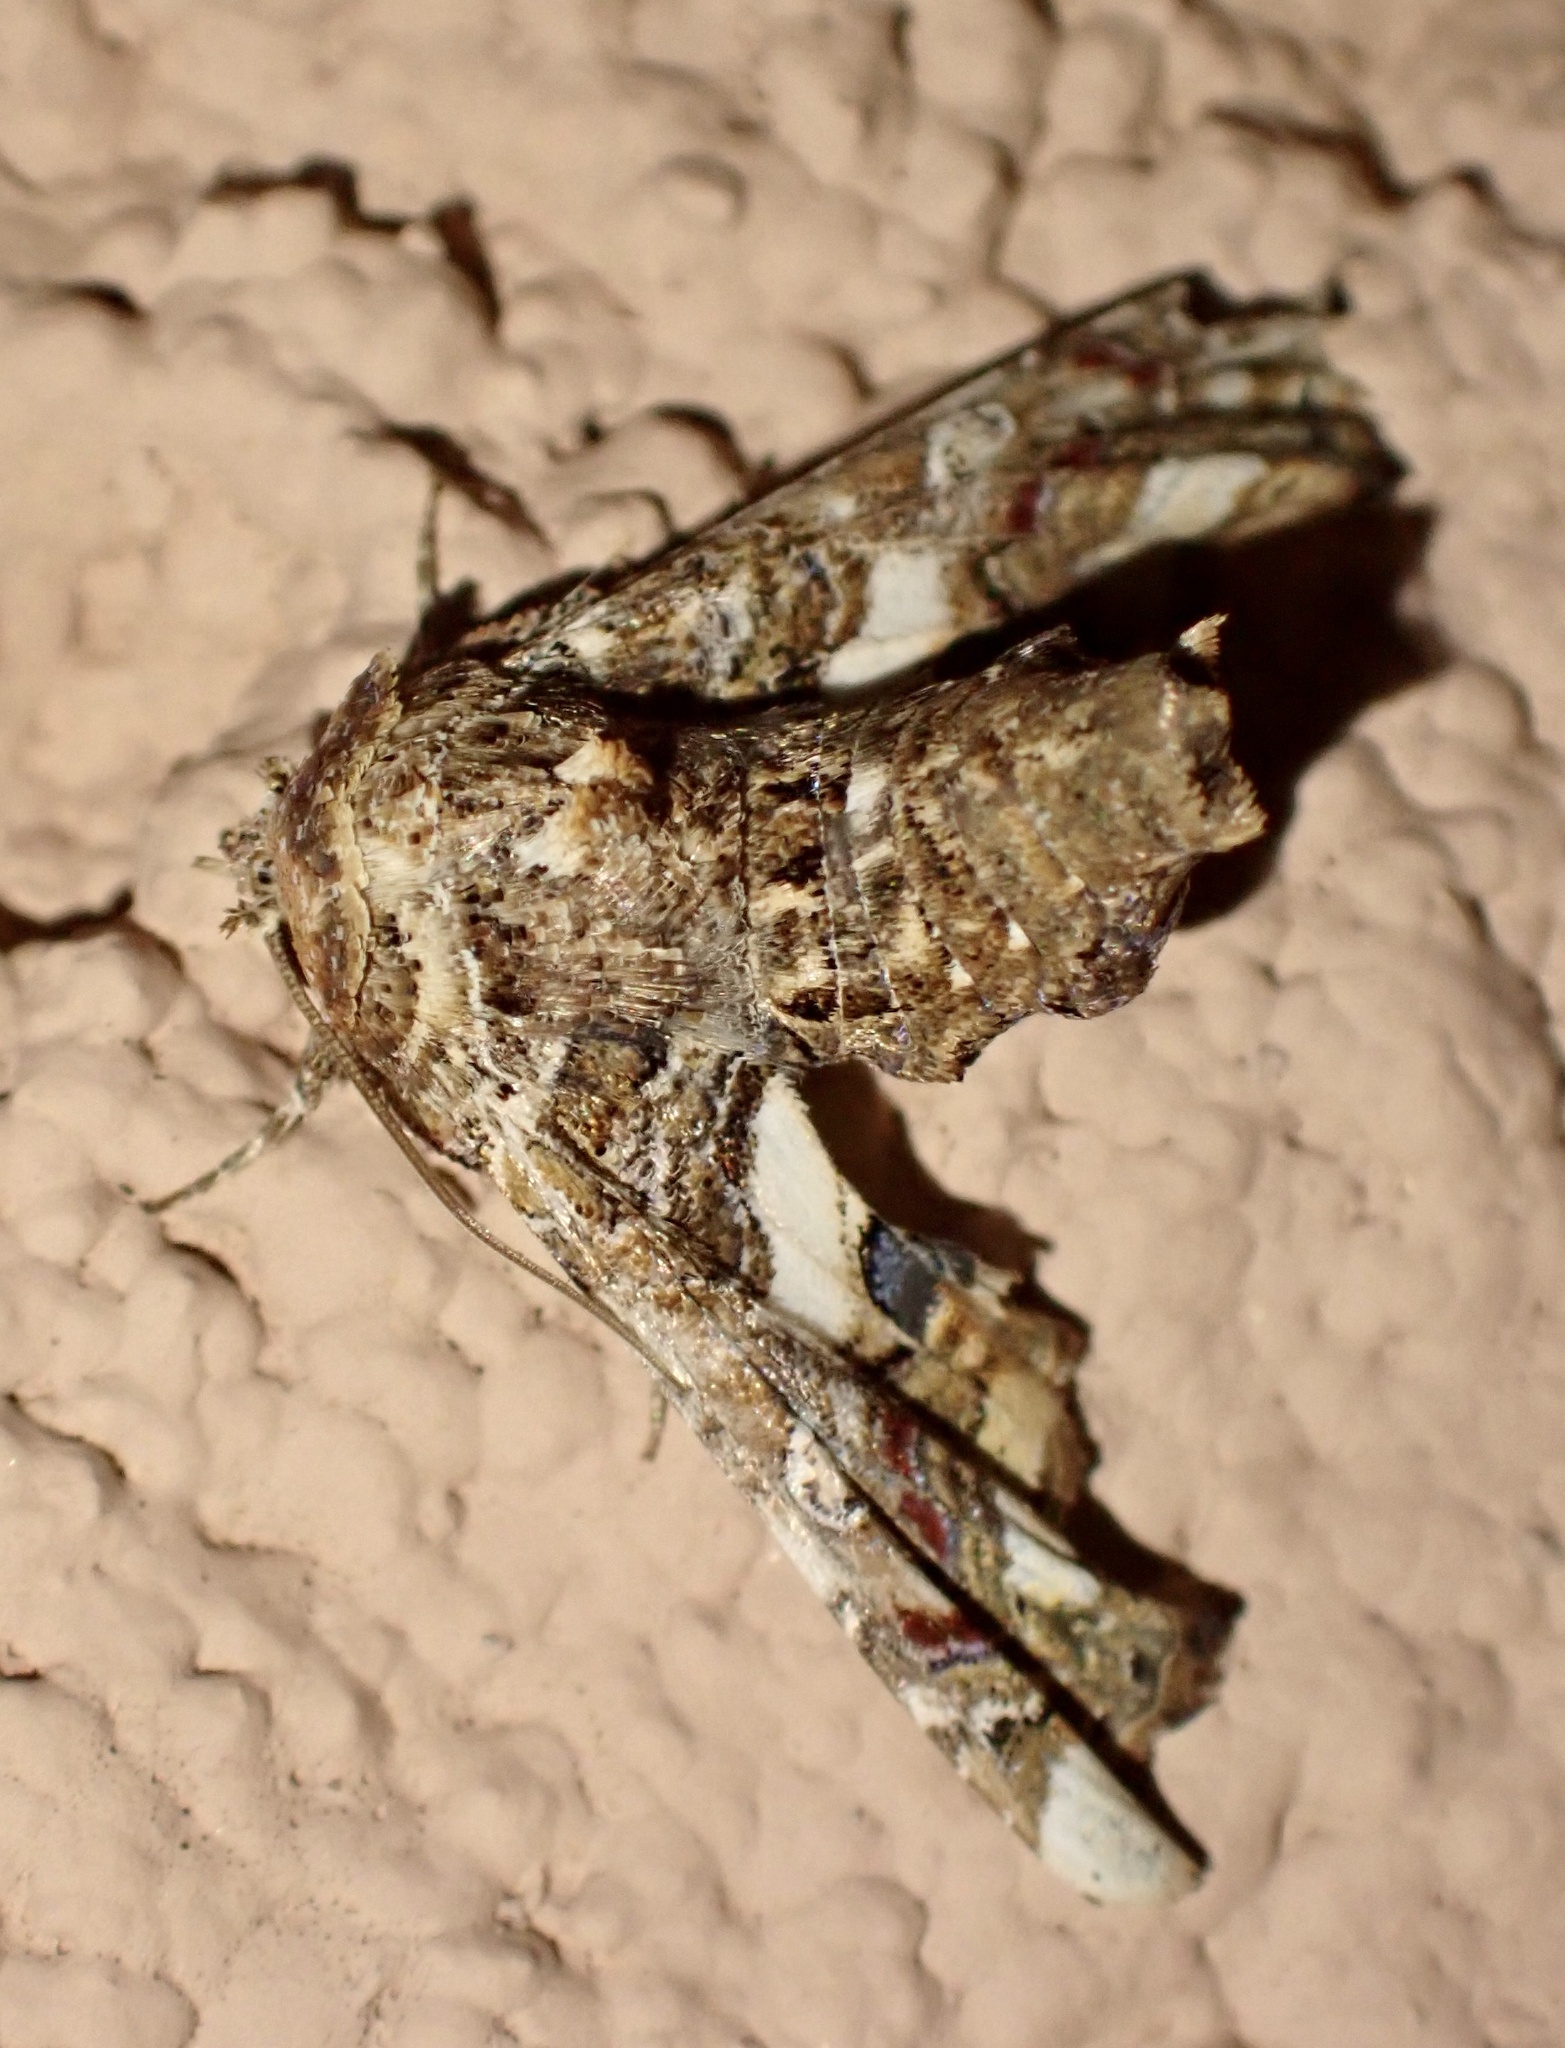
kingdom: Animalia
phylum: Arthropoda
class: Insecta
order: Lepidoptera
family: Euteliidae
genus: Eutelia
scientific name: Eutelia adulatrix
